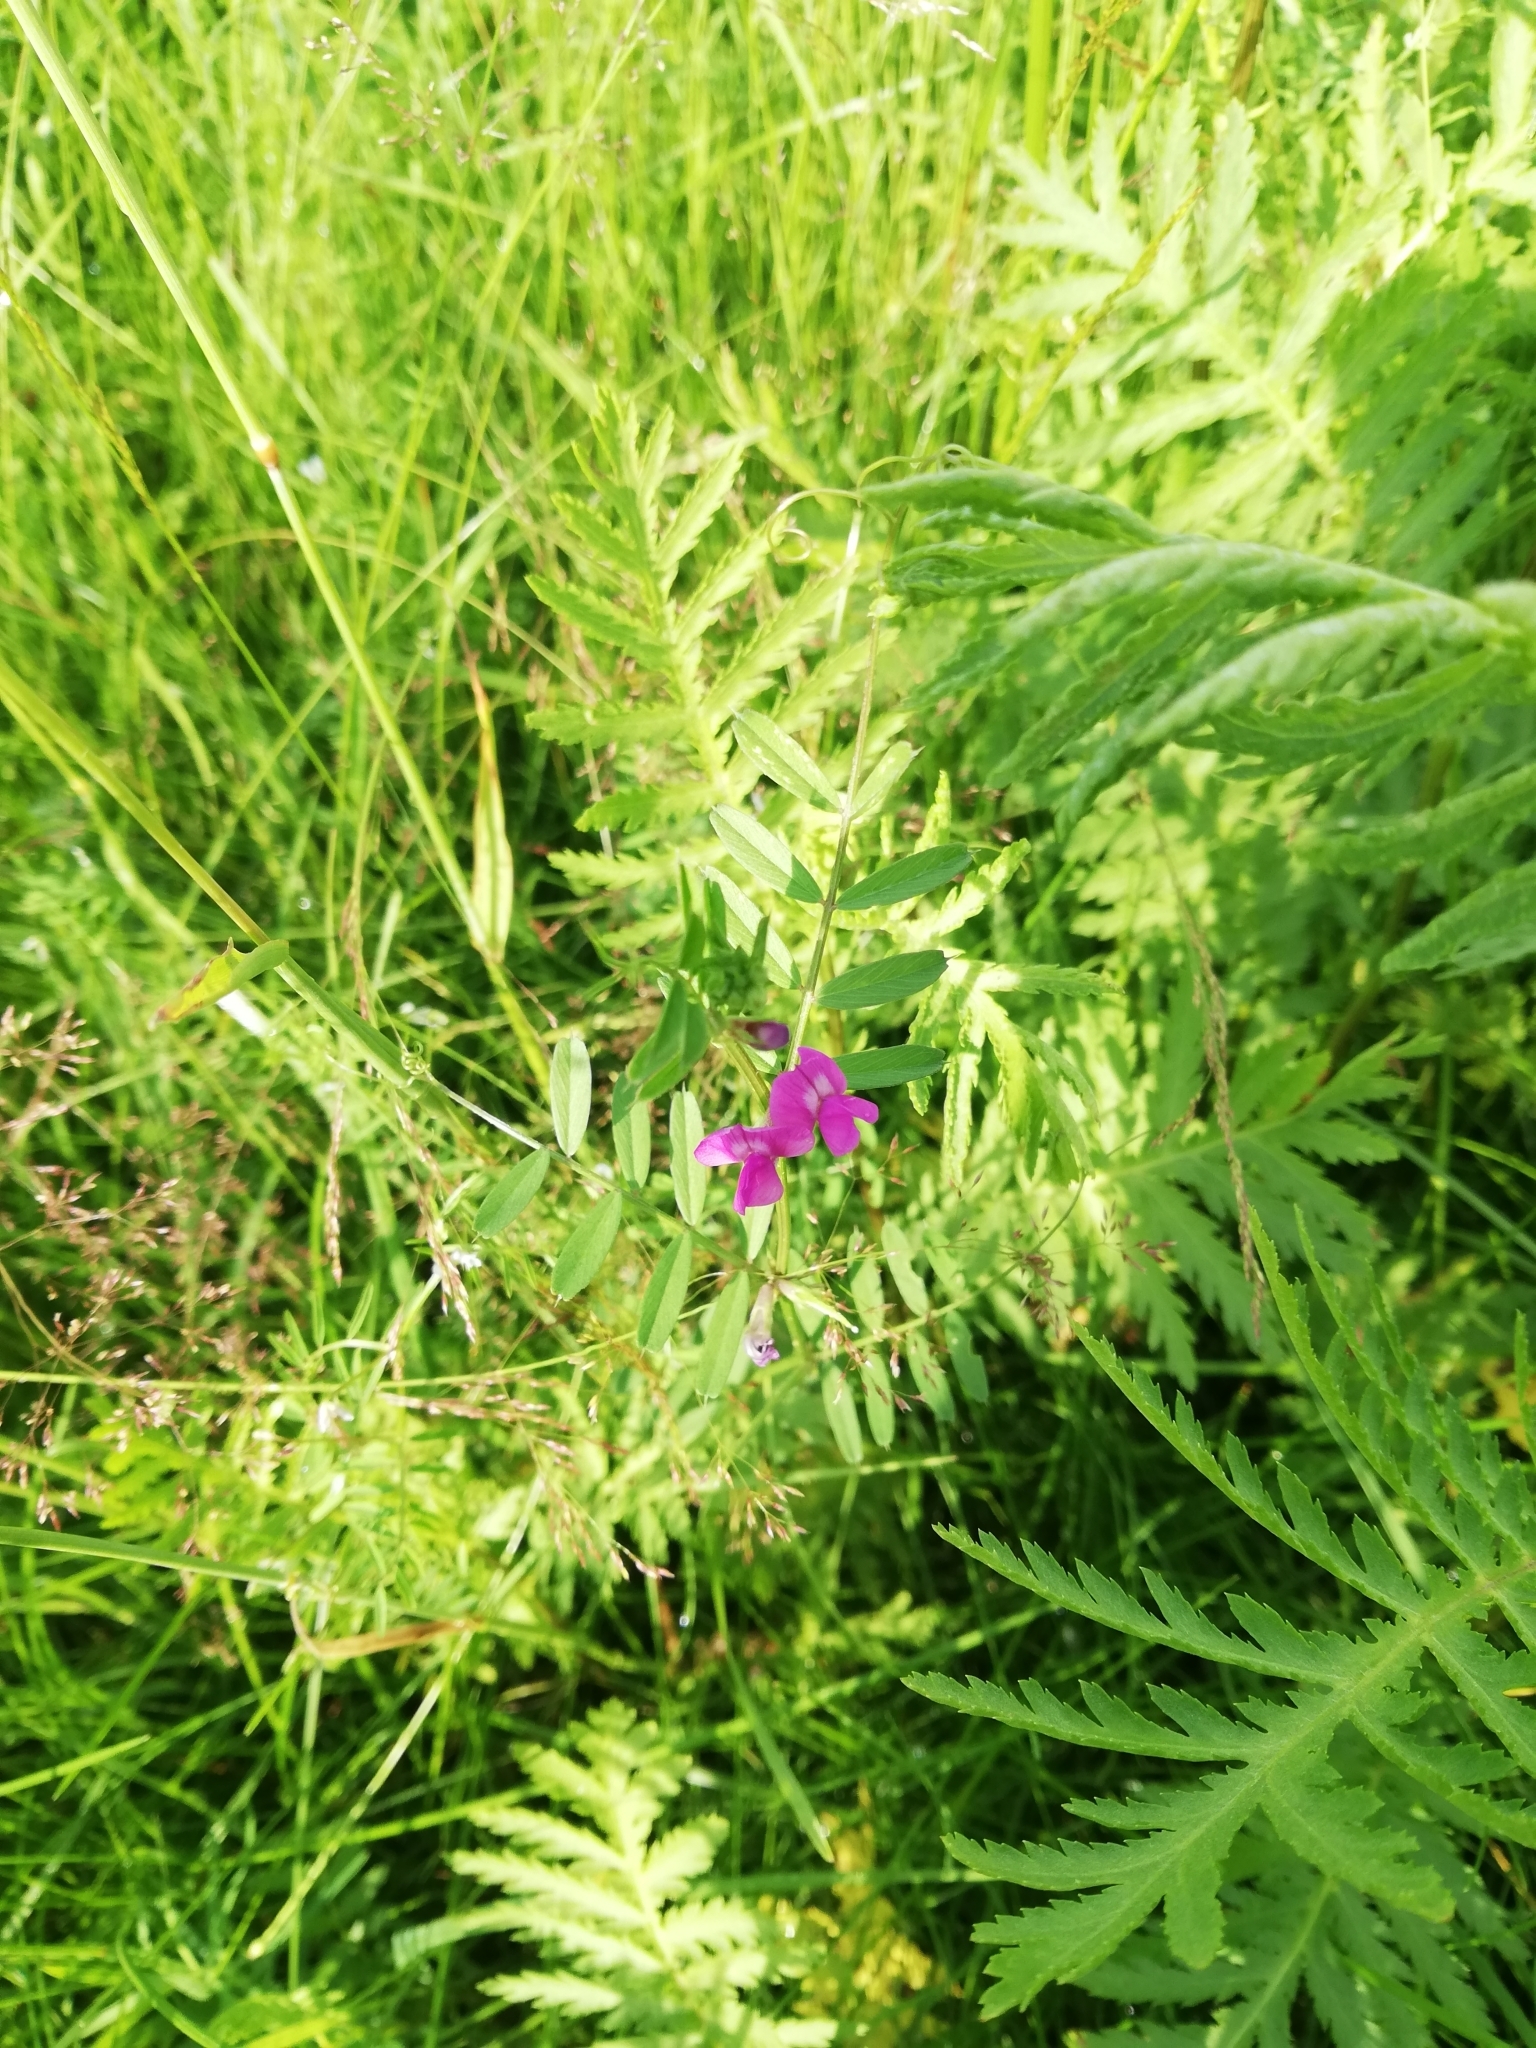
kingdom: Plantae
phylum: Tracheophyta
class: Magnoliopsida
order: Fabales
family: Fabaceae
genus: Vicia
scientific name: Vicia sativa
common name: Garden vetch
